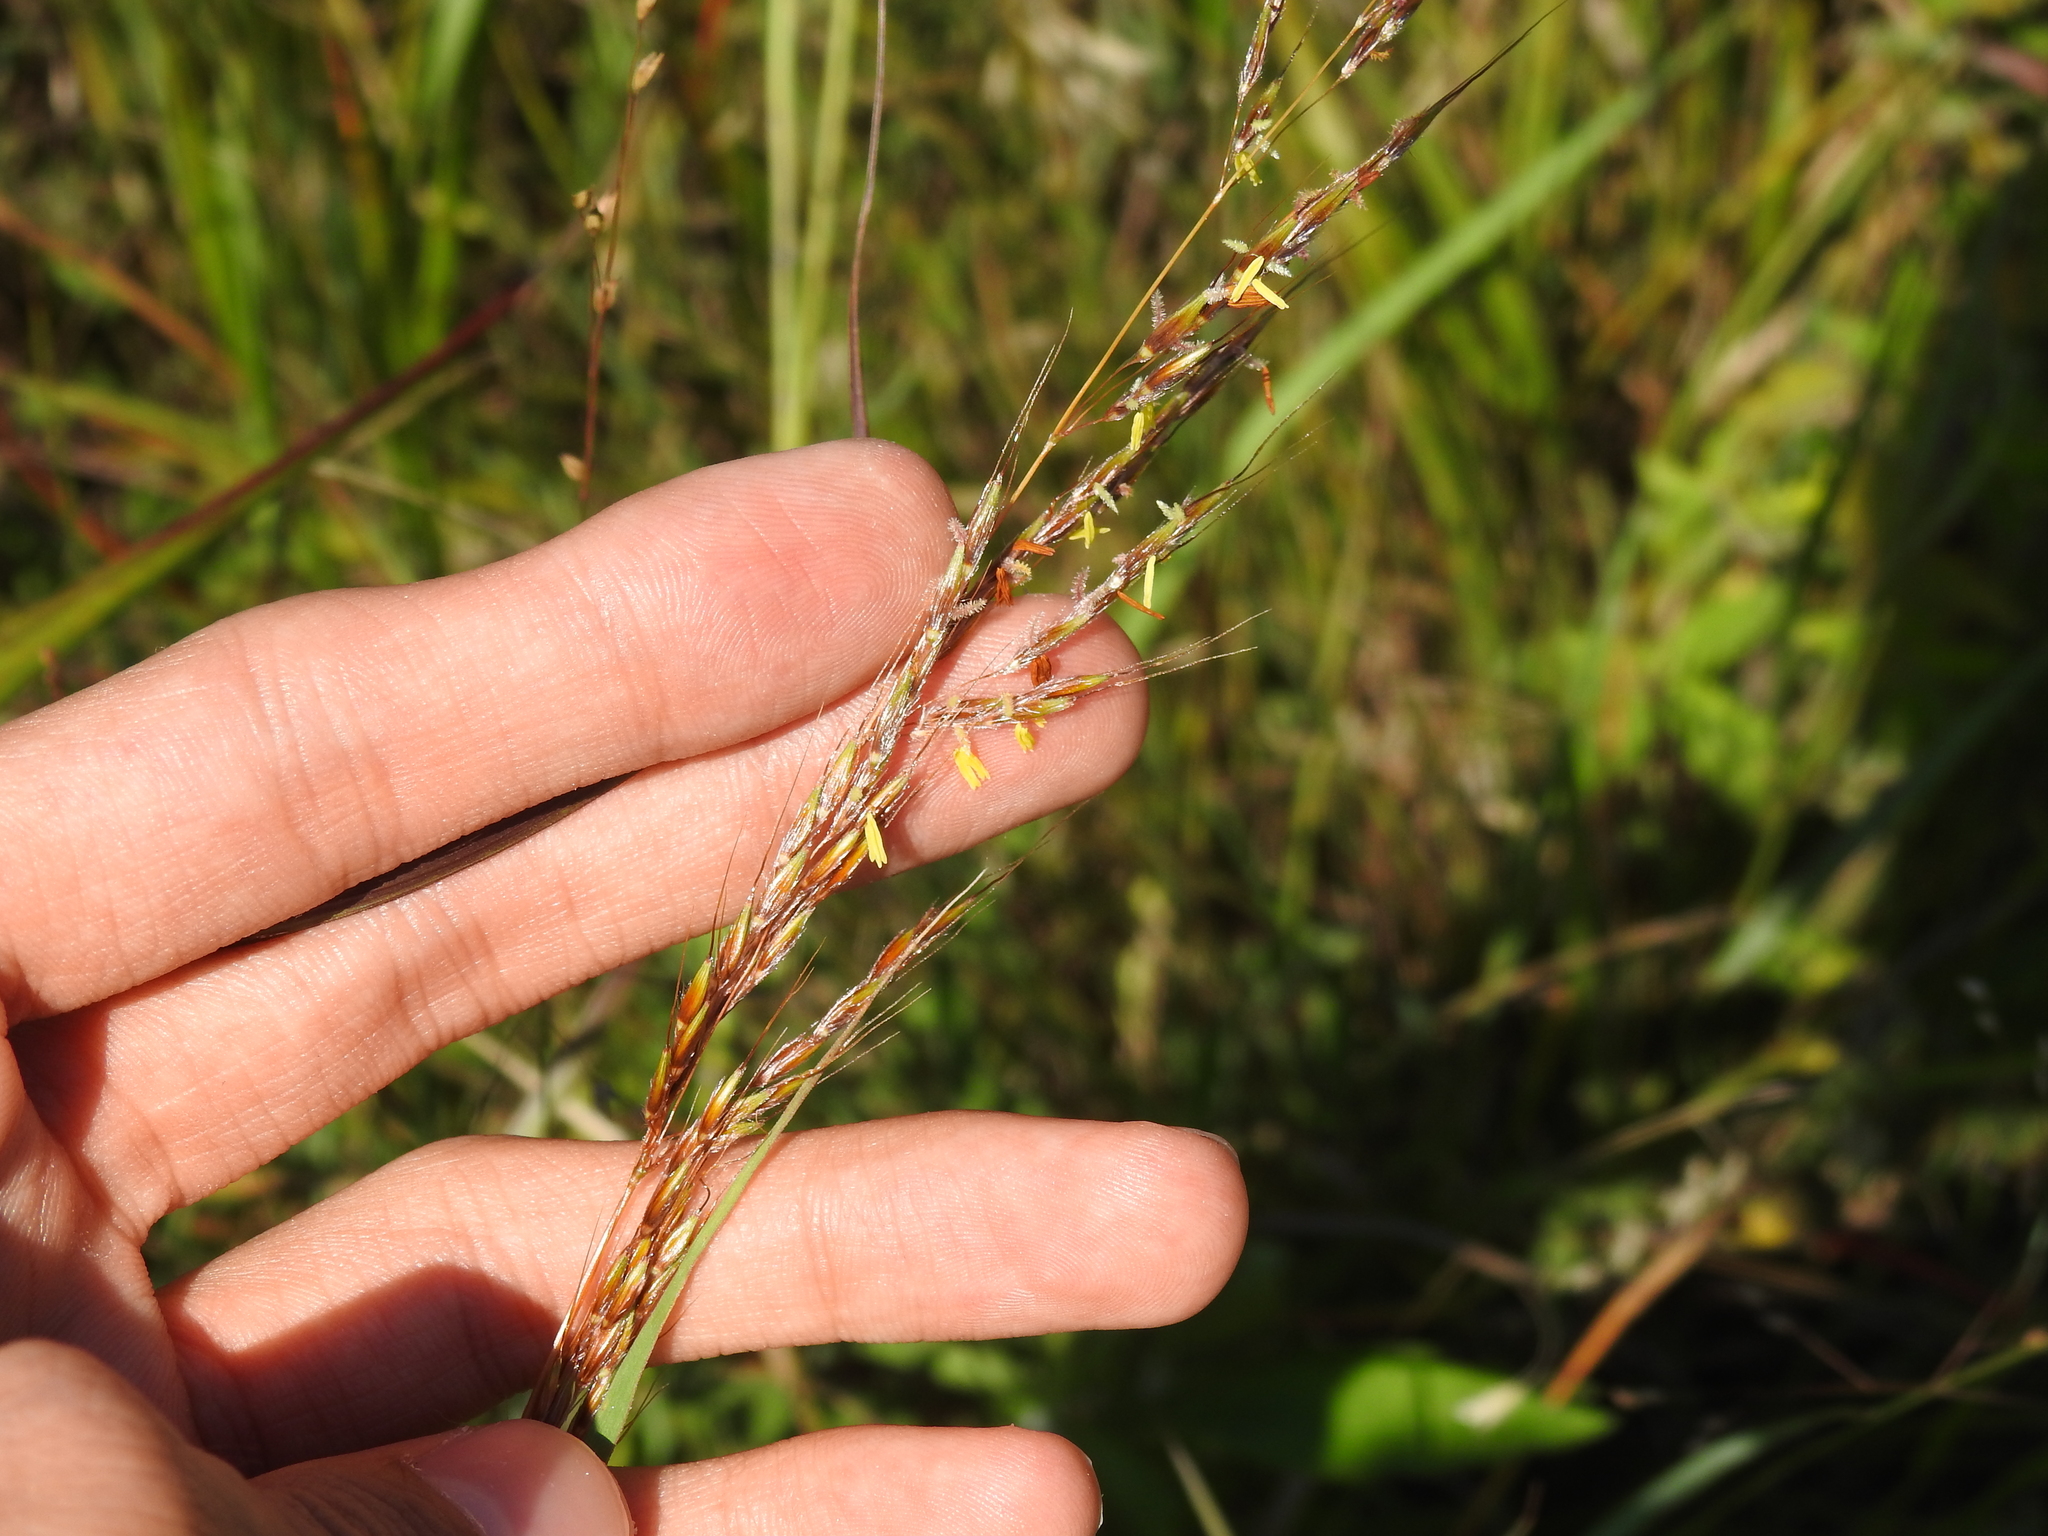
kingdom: Plantae
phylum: Tracheophyta
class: Liliopsida
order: Poales
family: Poaceae
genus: Sorghastrum
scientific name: Sorghastrum nutans
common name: Indian grass
